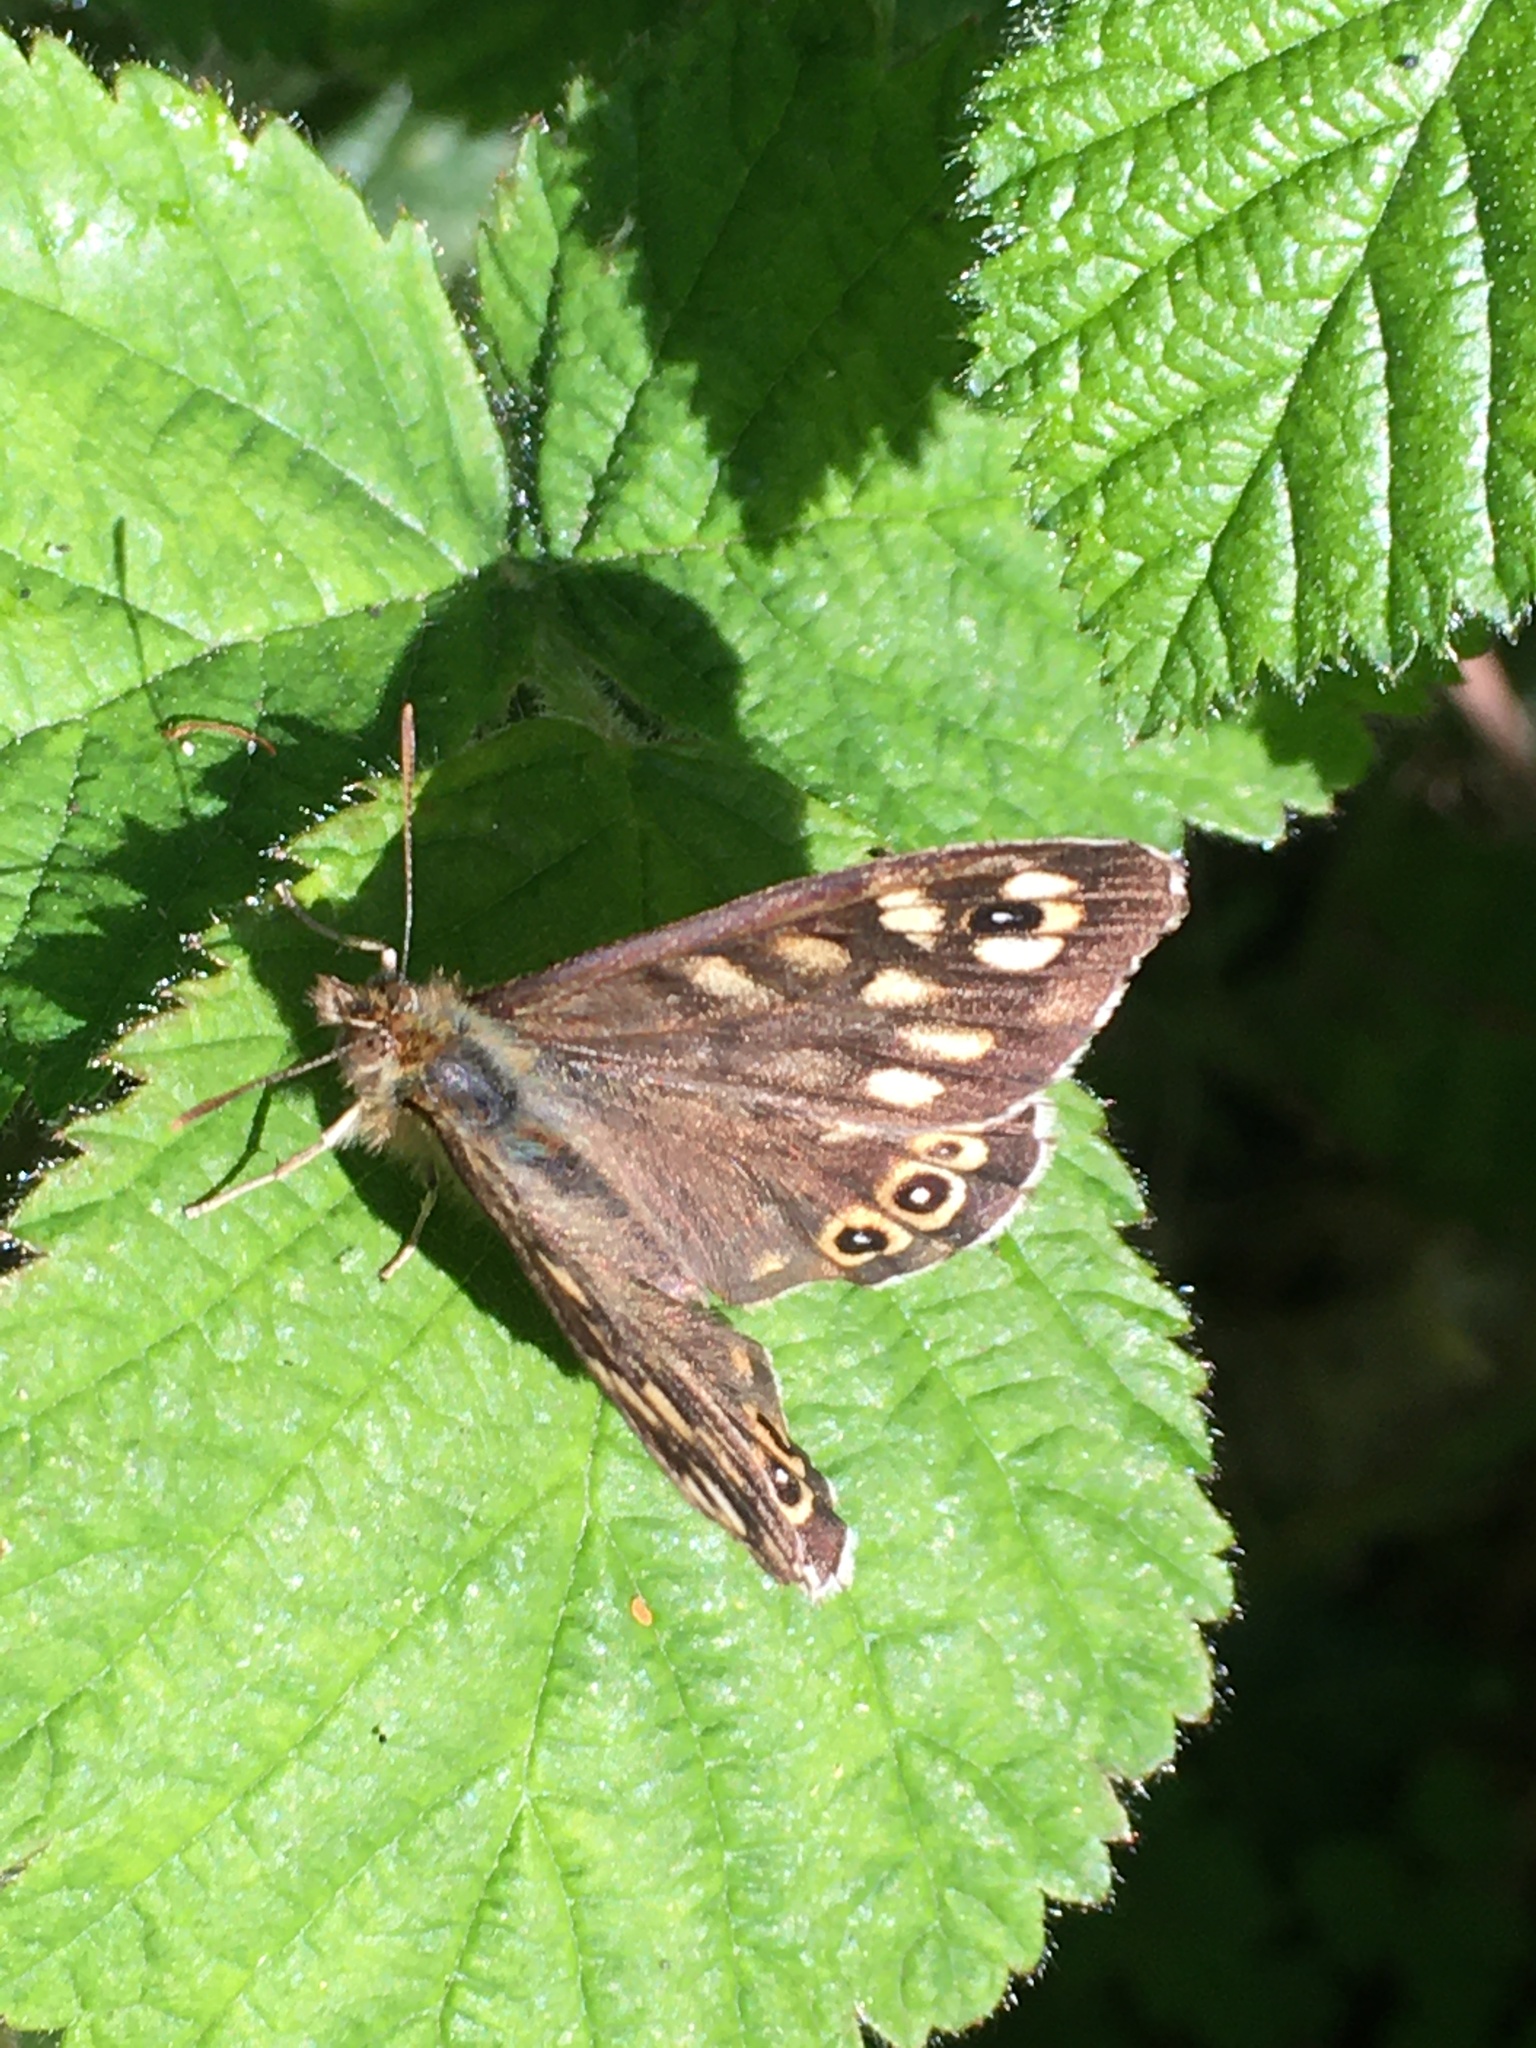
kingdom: Animalia
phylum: Arthropoda
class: Insecta
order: Lepidoptera
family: Nymphalidae
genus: Pararge
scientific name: Pararge aegeria
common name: Speckled wood
